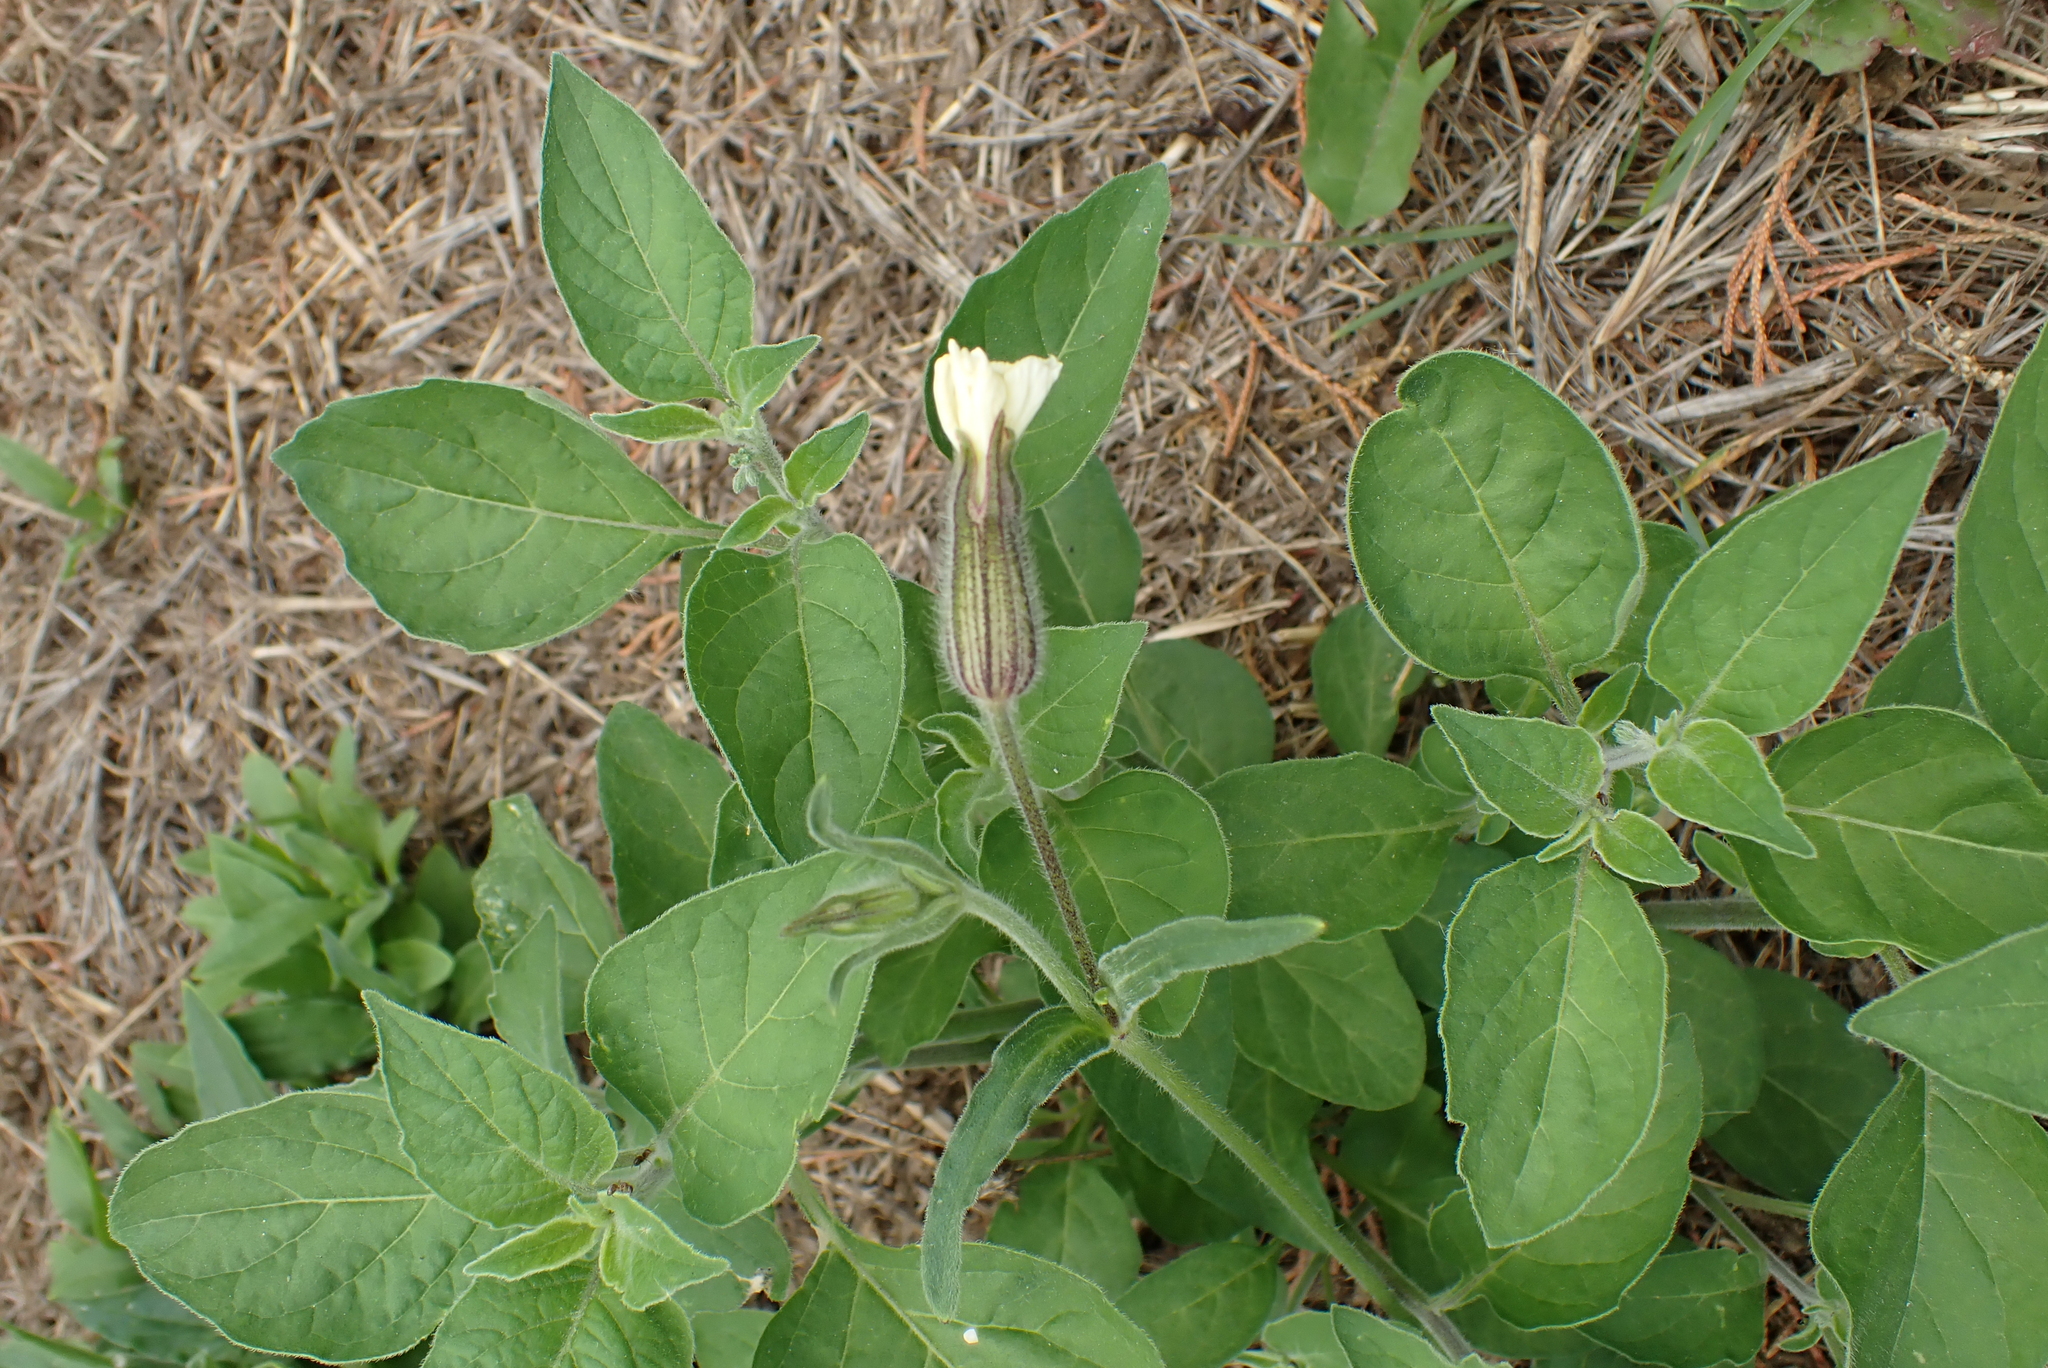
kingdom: Plantae
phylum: Tracheophyta
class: Magnoliopsida
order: Caryophyllales
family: Caryophyllaceae
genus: Silene
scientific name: Silene latifolia
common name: White campion
